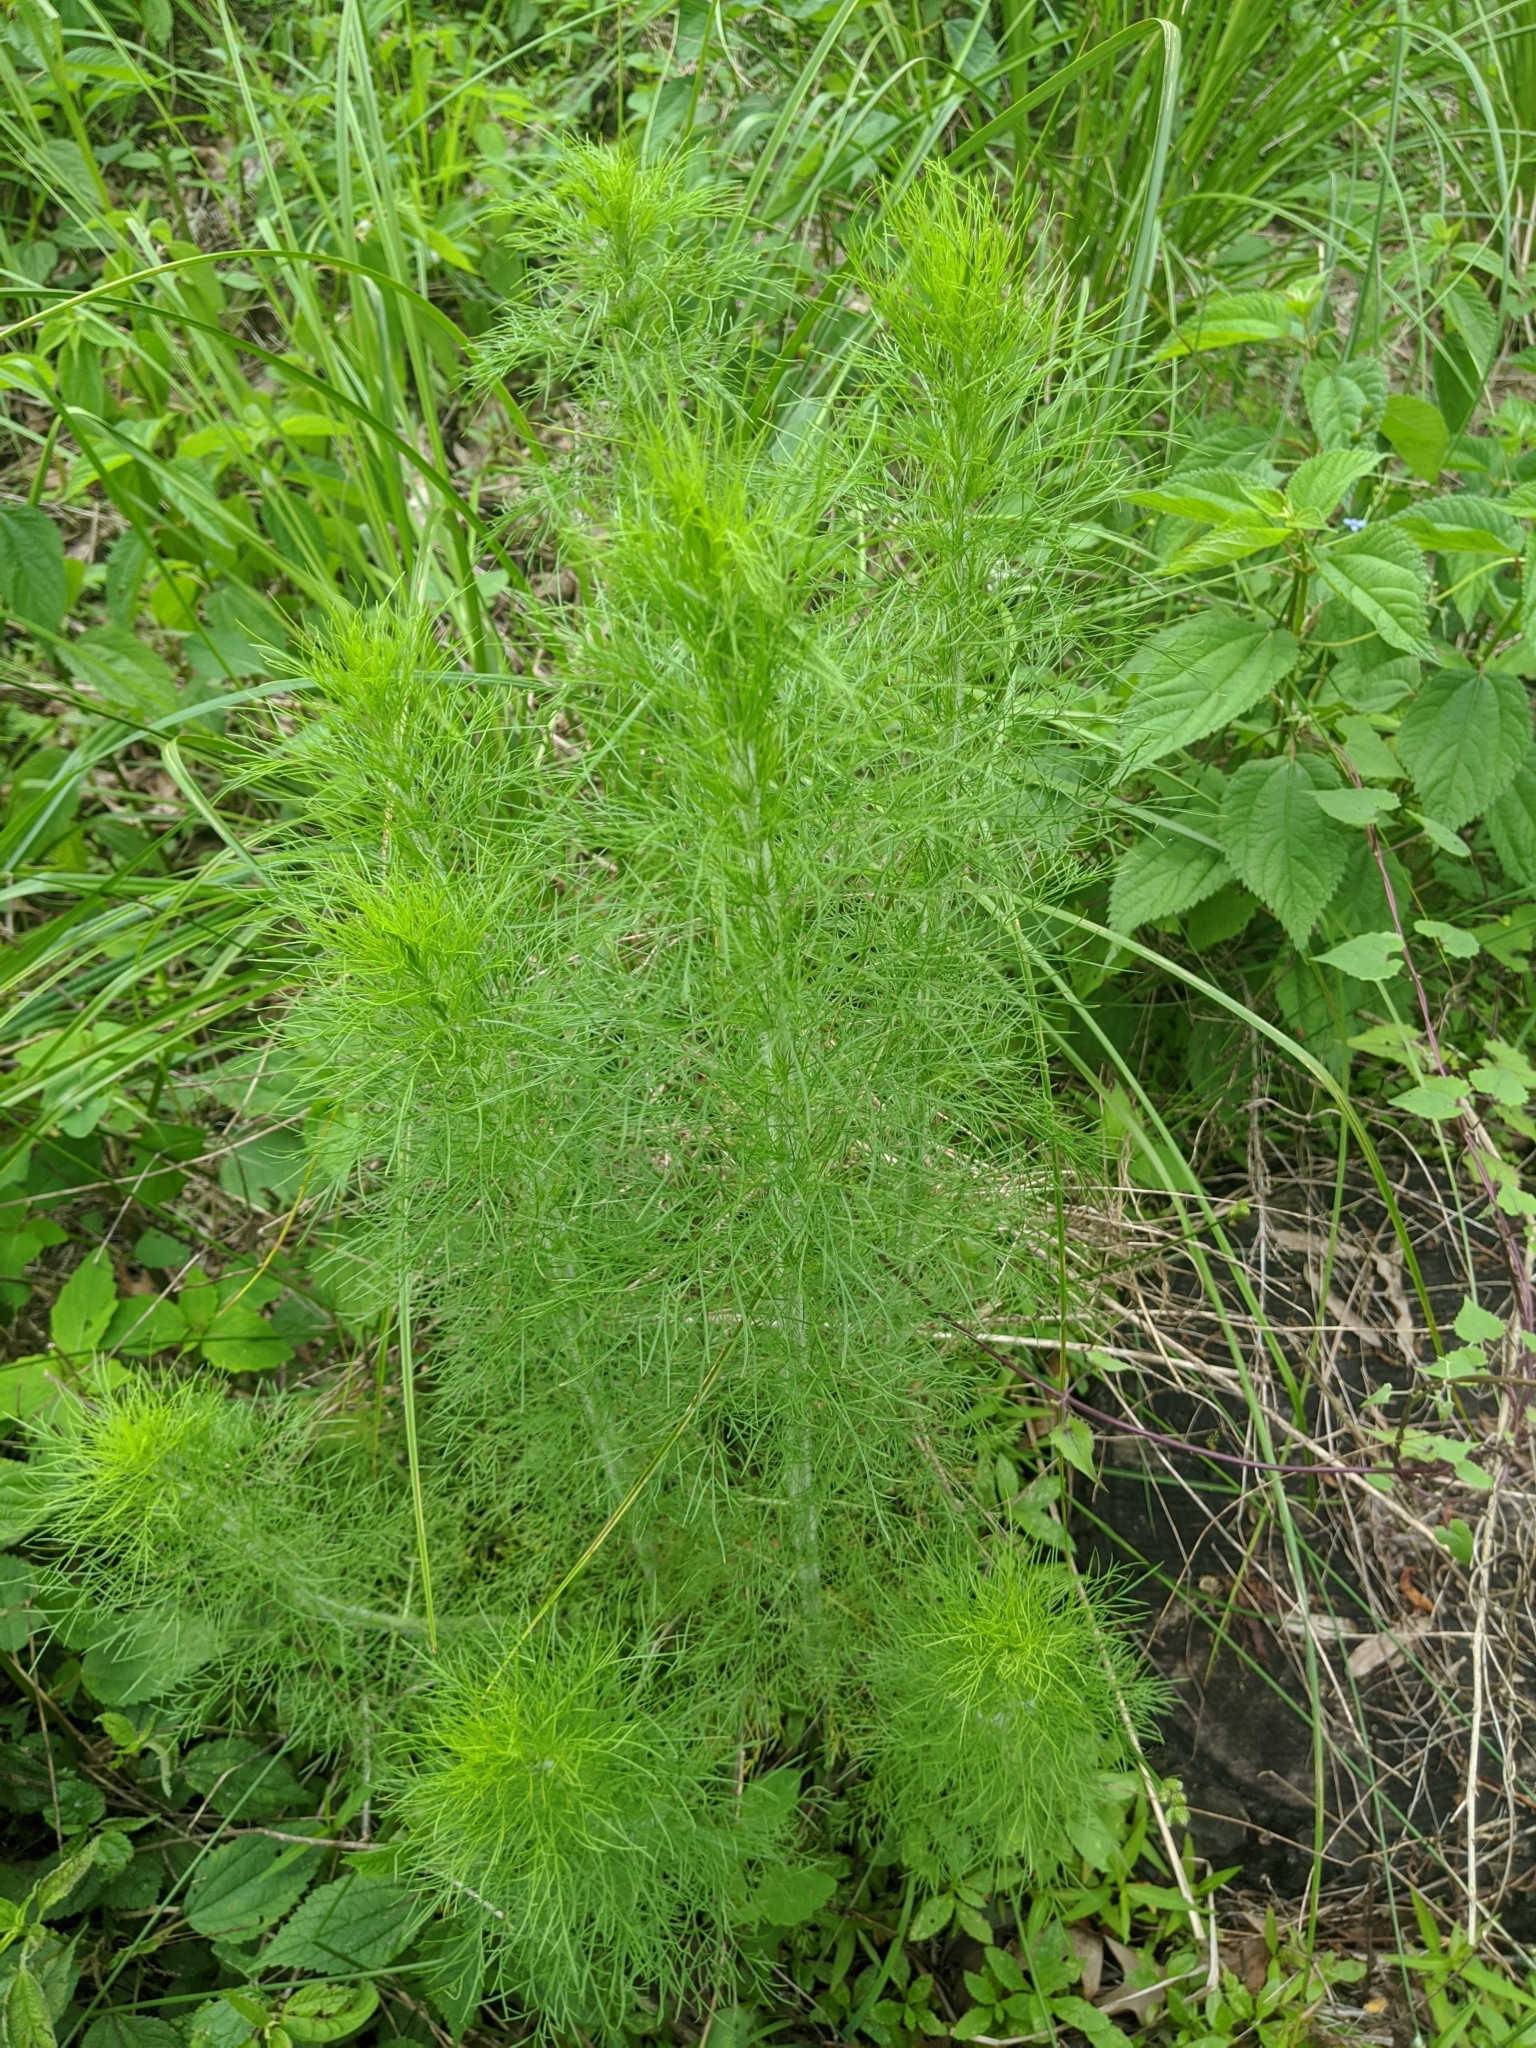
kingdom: Plantae
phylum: Tracheophyta
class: Magnoliopsida
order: Asterales
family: Asteraceae
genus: Eupatorium
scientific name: Eupatorium capillifolium
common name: Dog-fennel
